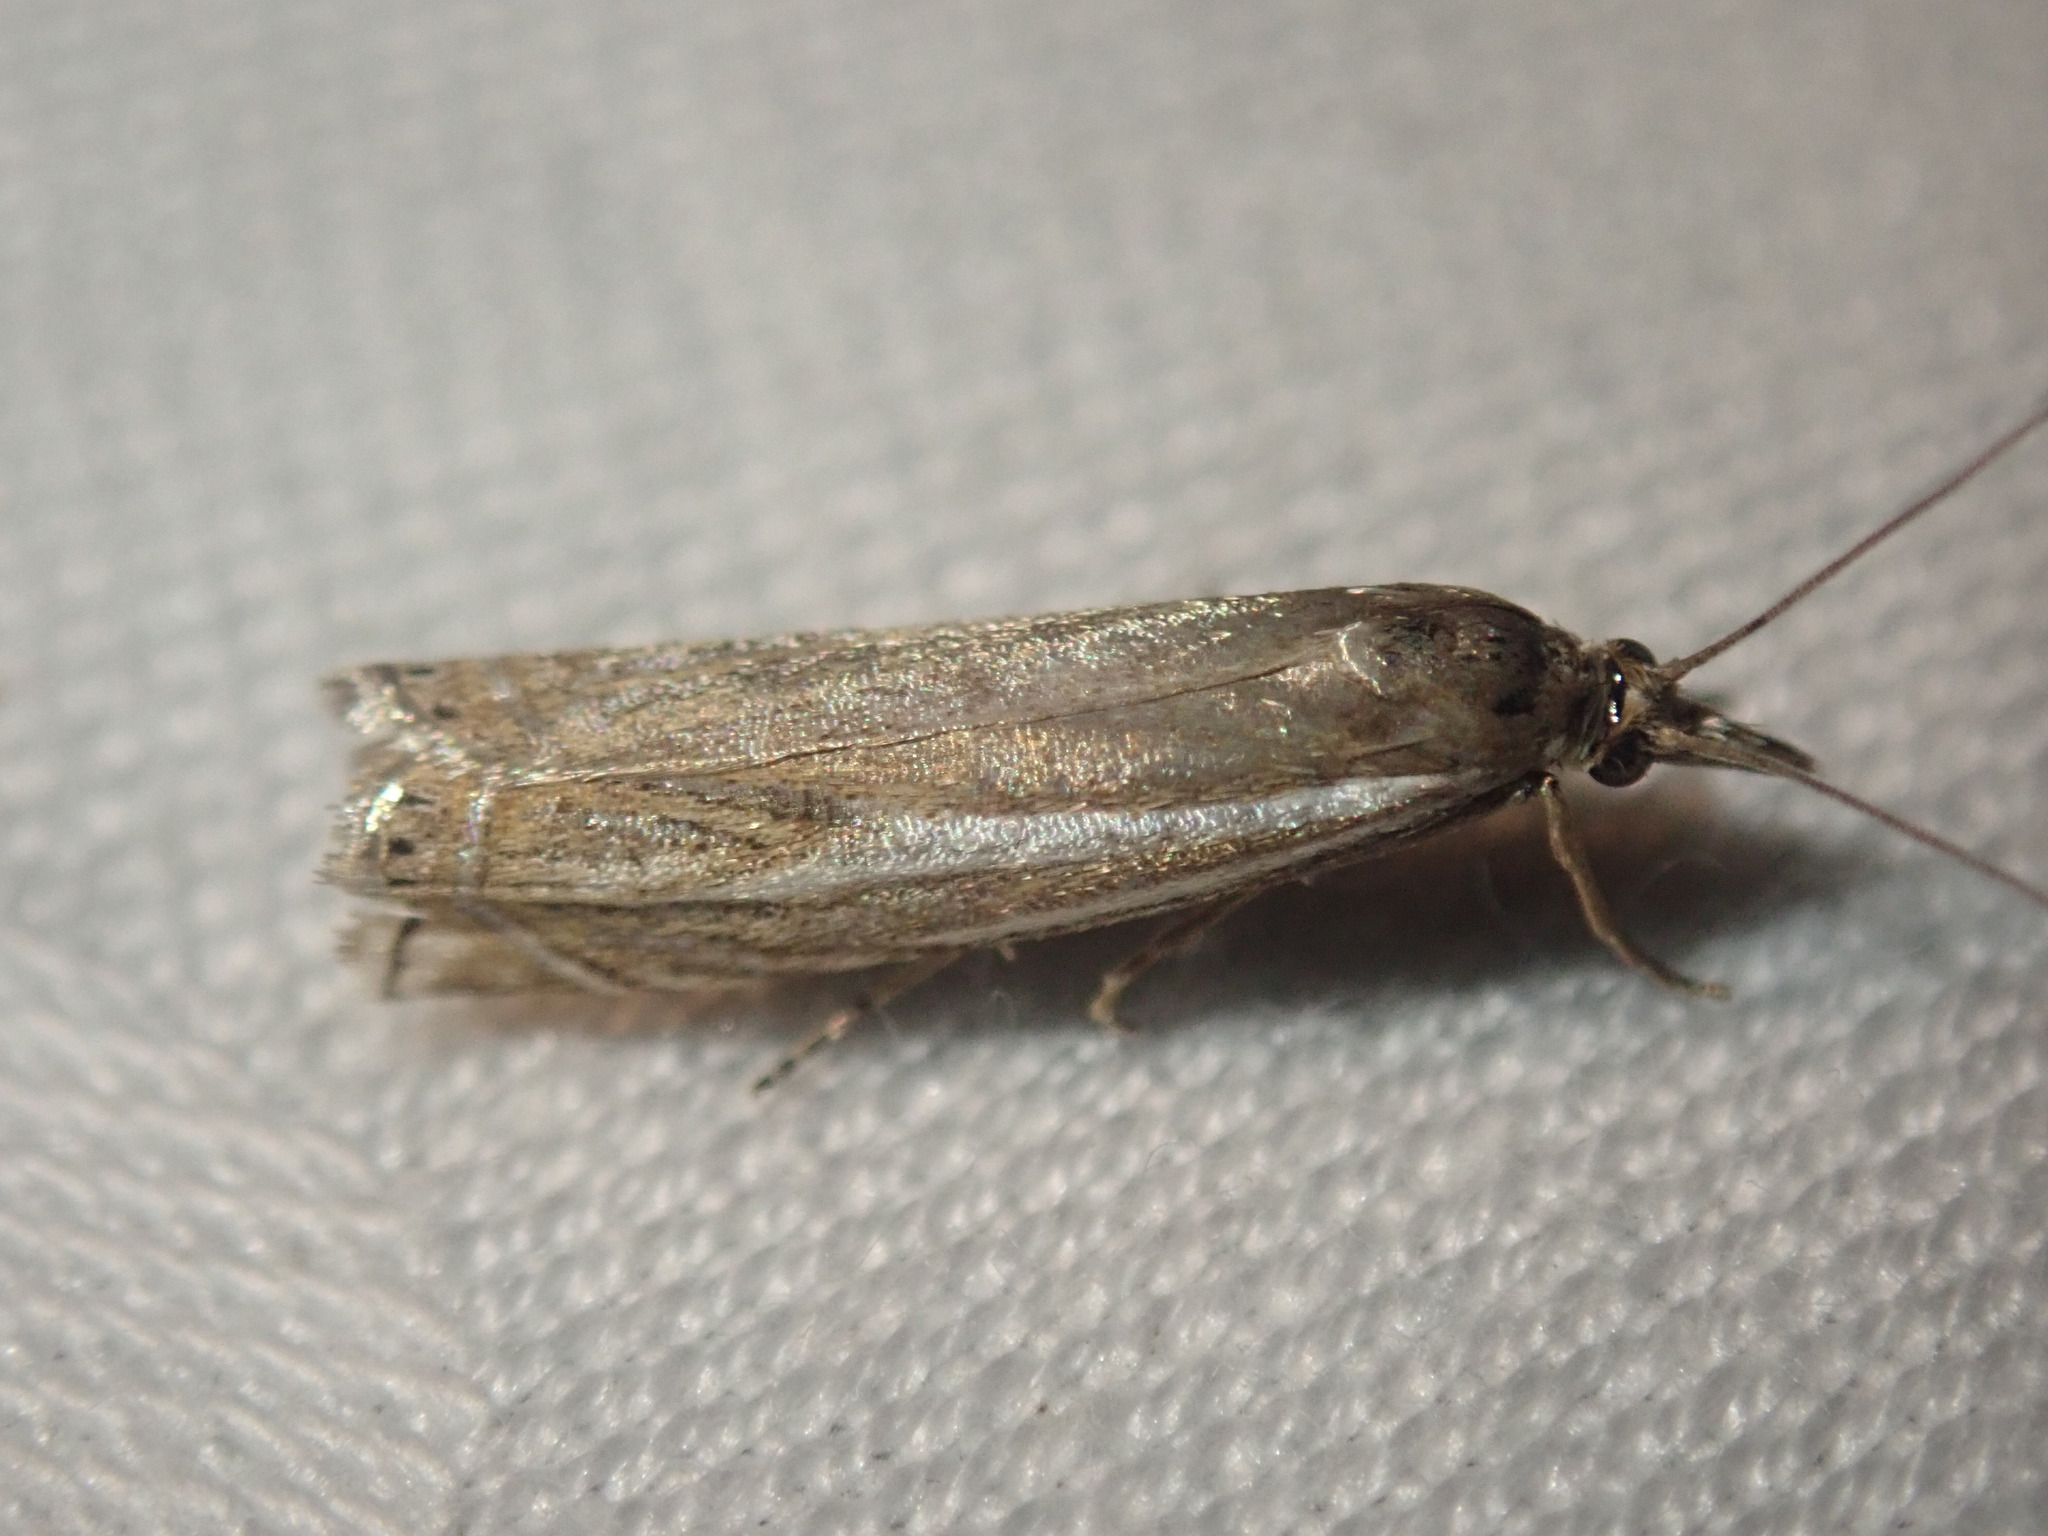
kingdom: Animalia
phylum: Arthropoda
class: Insecta
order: Lepidoptera
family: Crambidae
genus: Crambus
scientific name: Crambus nemorella
